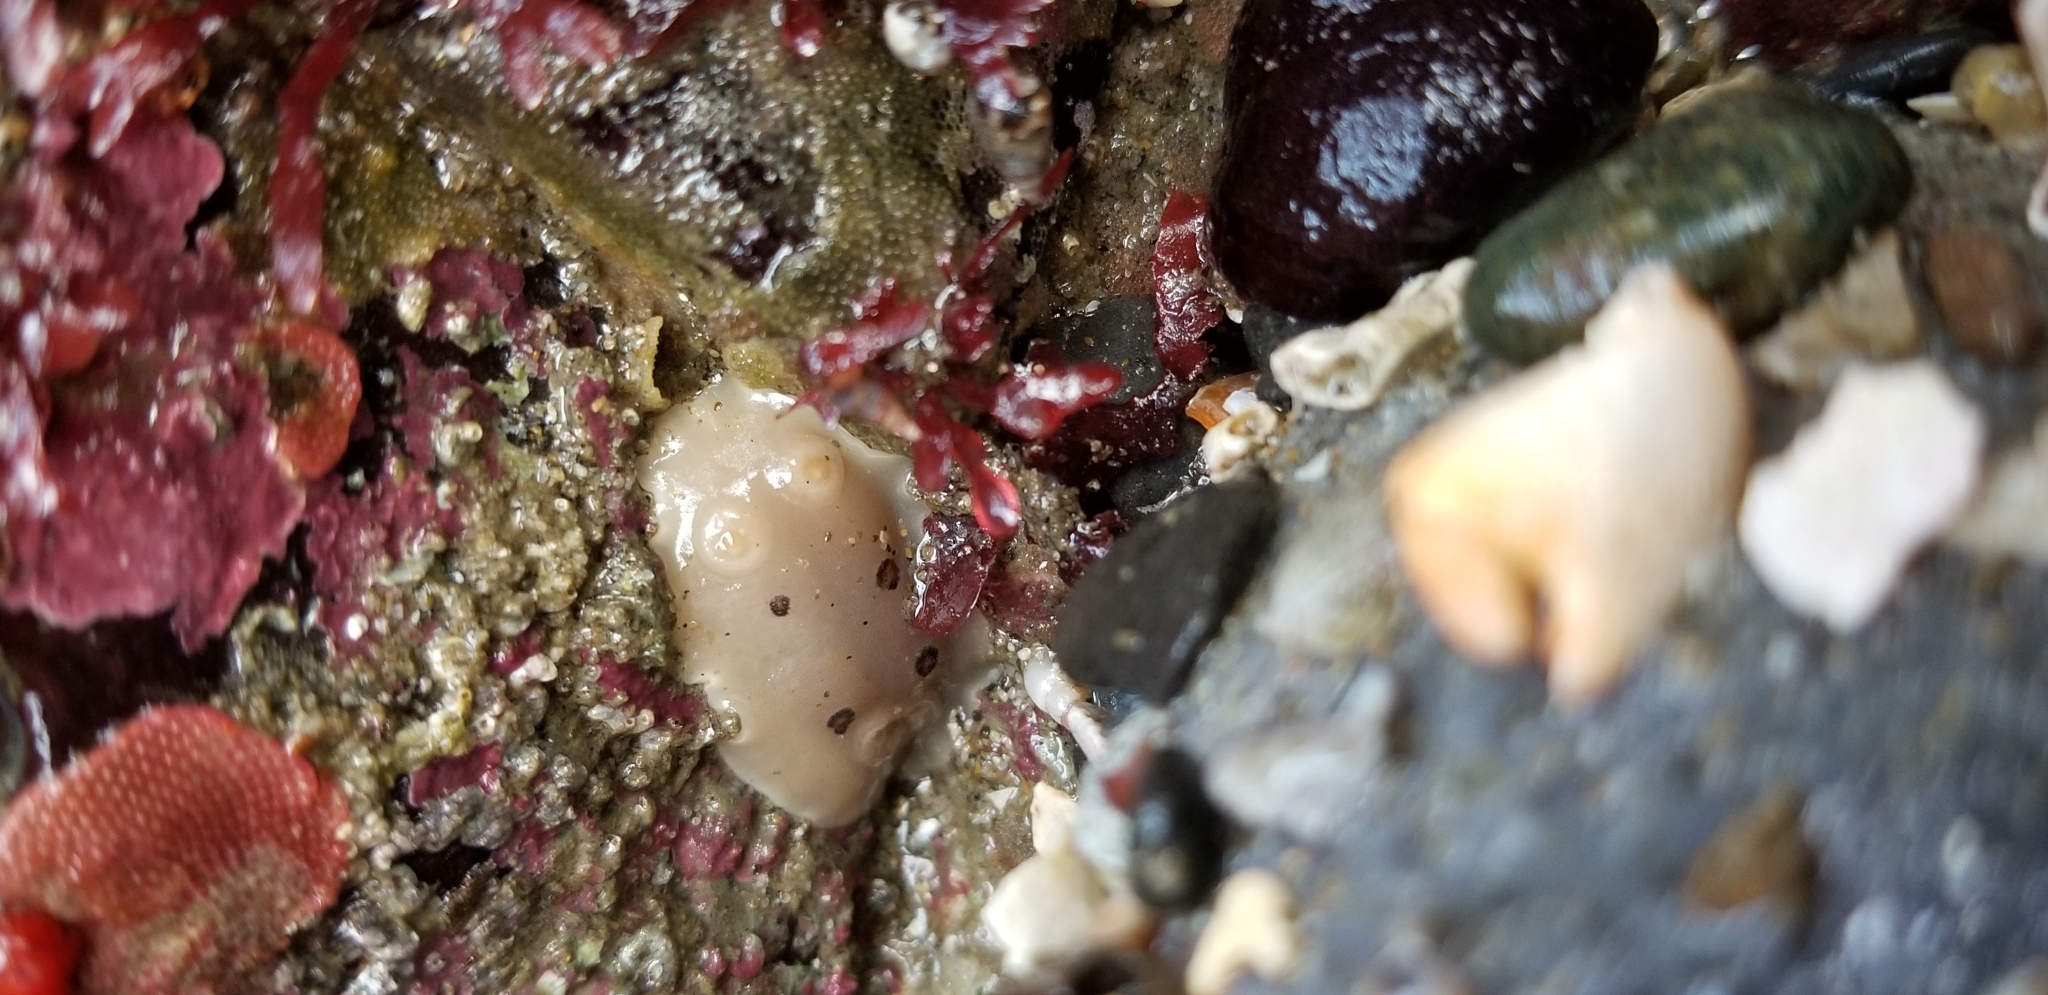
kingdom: Animalia
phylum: Mollusca
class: Gastropoda
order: Nudibranchia
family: Discodorididae
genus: Diaulula
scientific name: Diaulula sandiegensis
